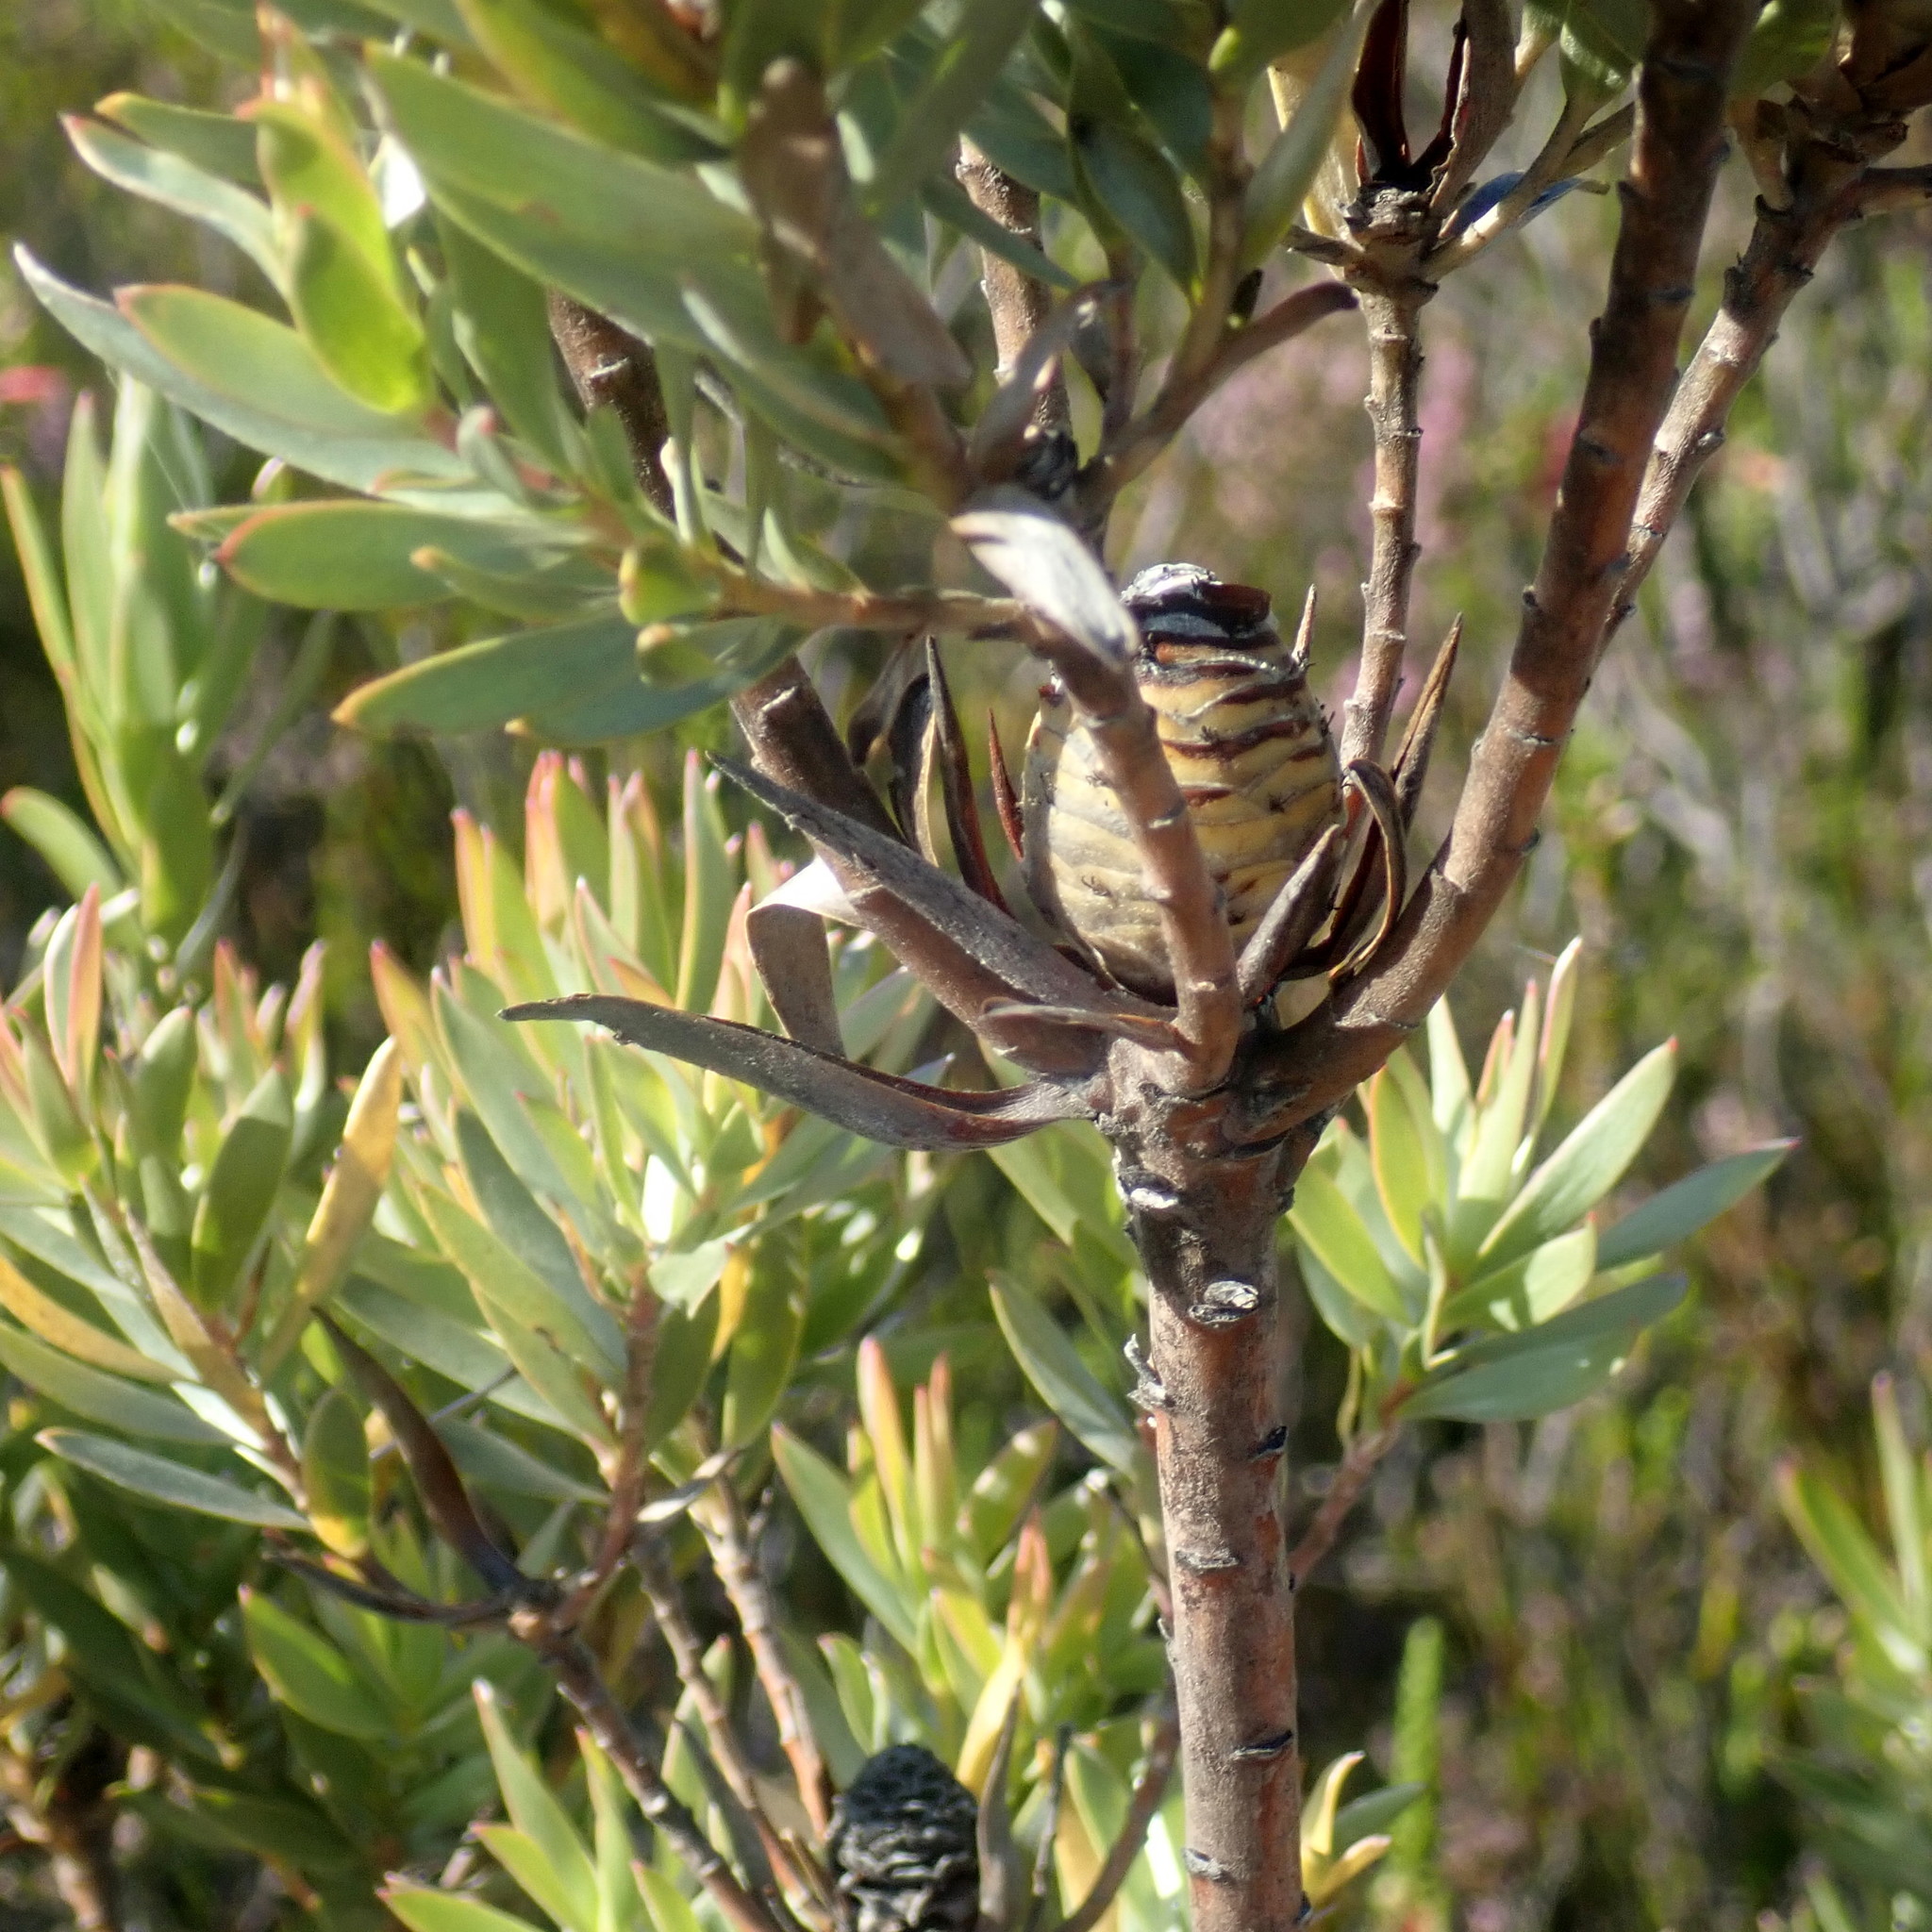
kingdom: Plantae
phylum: Tracheophyta
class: Magnoliopsida
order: Proteales
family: Proteaceae
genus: Leucadendron
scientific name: Leucadendron uliginosum
